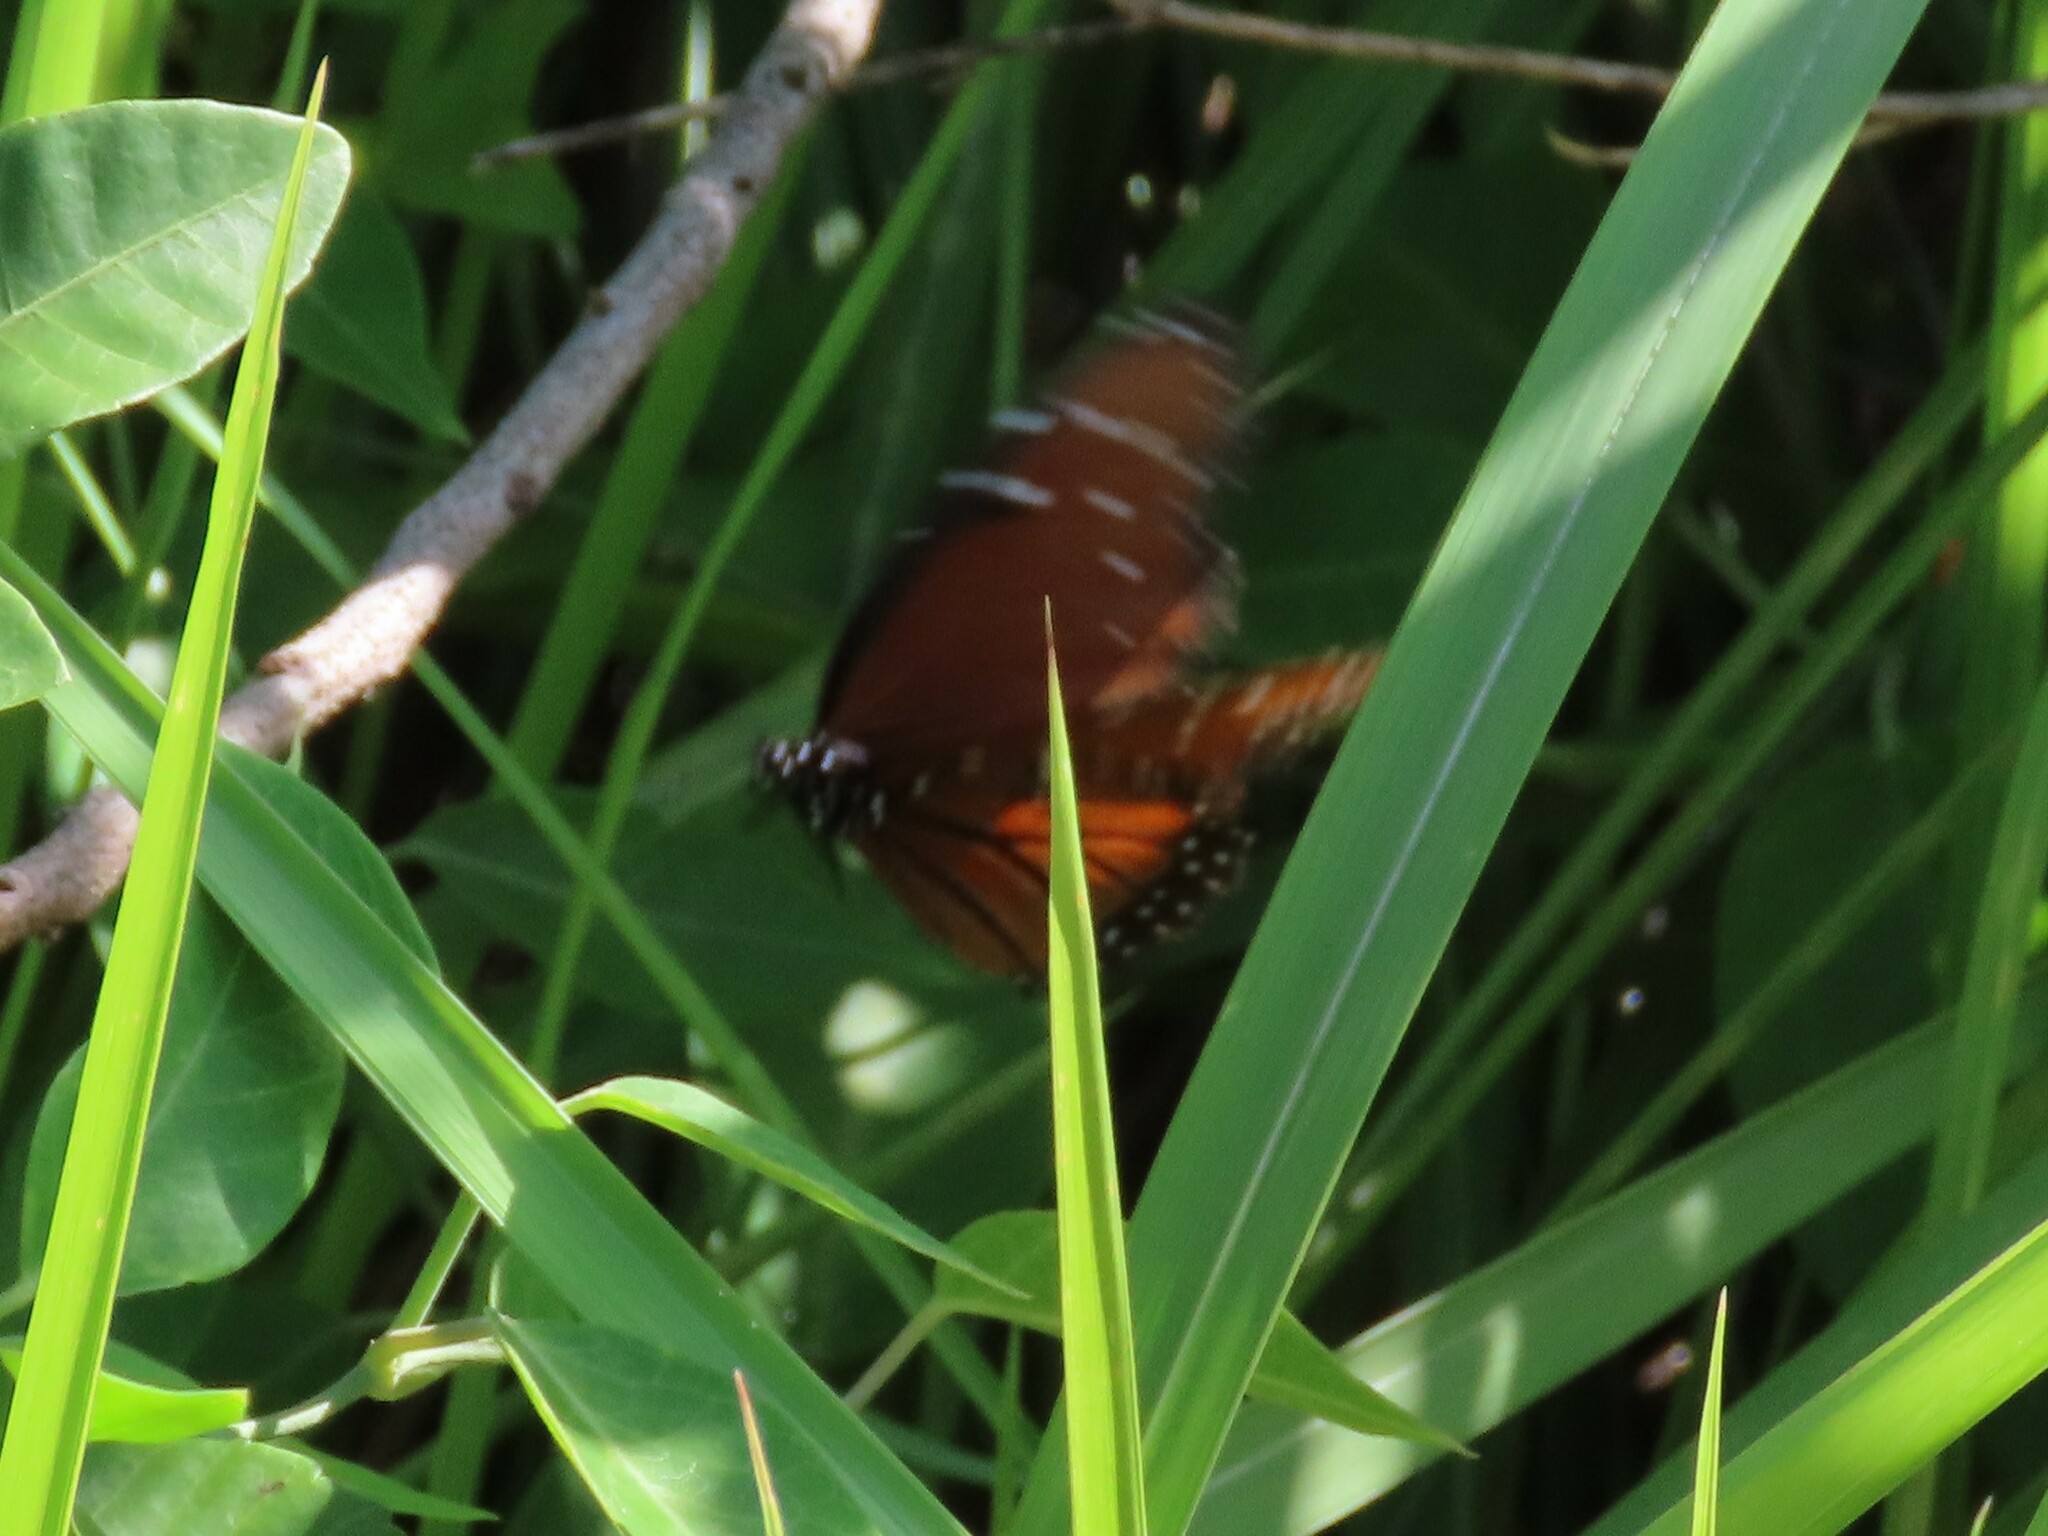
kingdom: Animalia
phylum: Arthropoda
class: Insecta
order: Lepidoptera
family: Nymphalidae
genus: Danaus
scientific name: Danaus gilippus
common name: Queen
